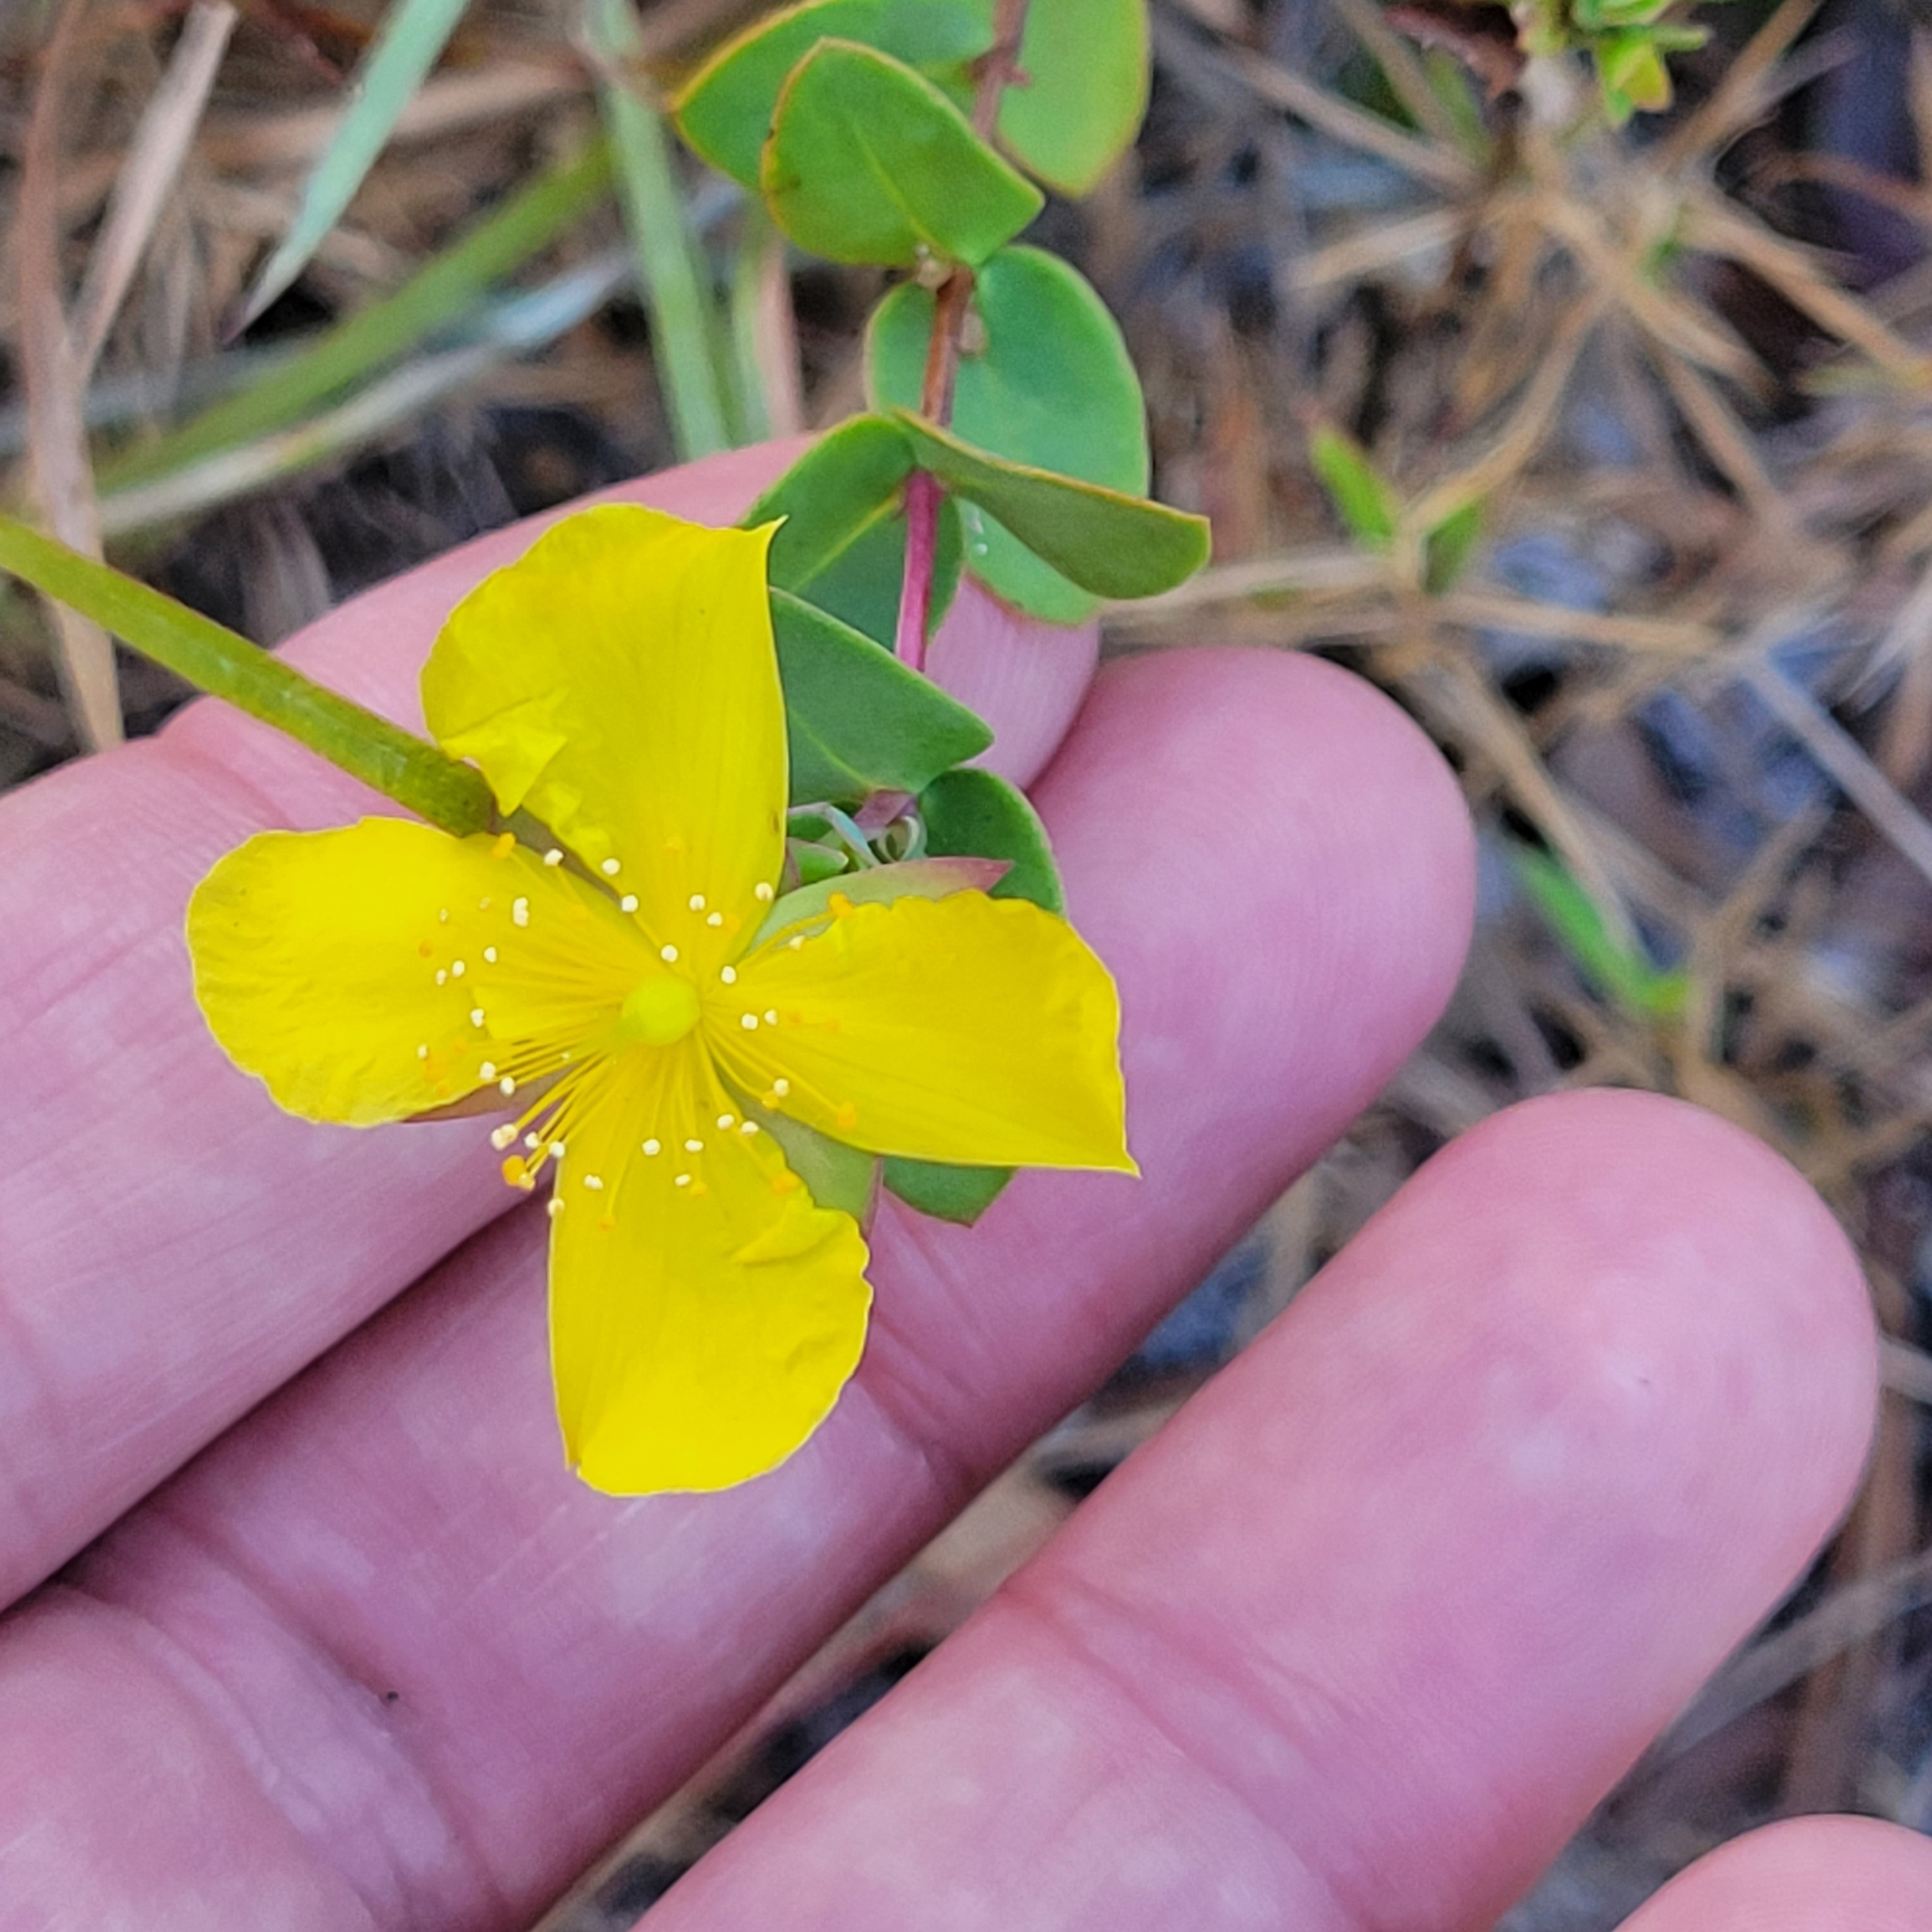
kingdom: Plantae
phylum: Tracheophyta
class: Magnoliopsida
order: Malpighiales
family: Hypericaceae
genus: Hypericum
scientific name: Hypericum tetrapetalum
